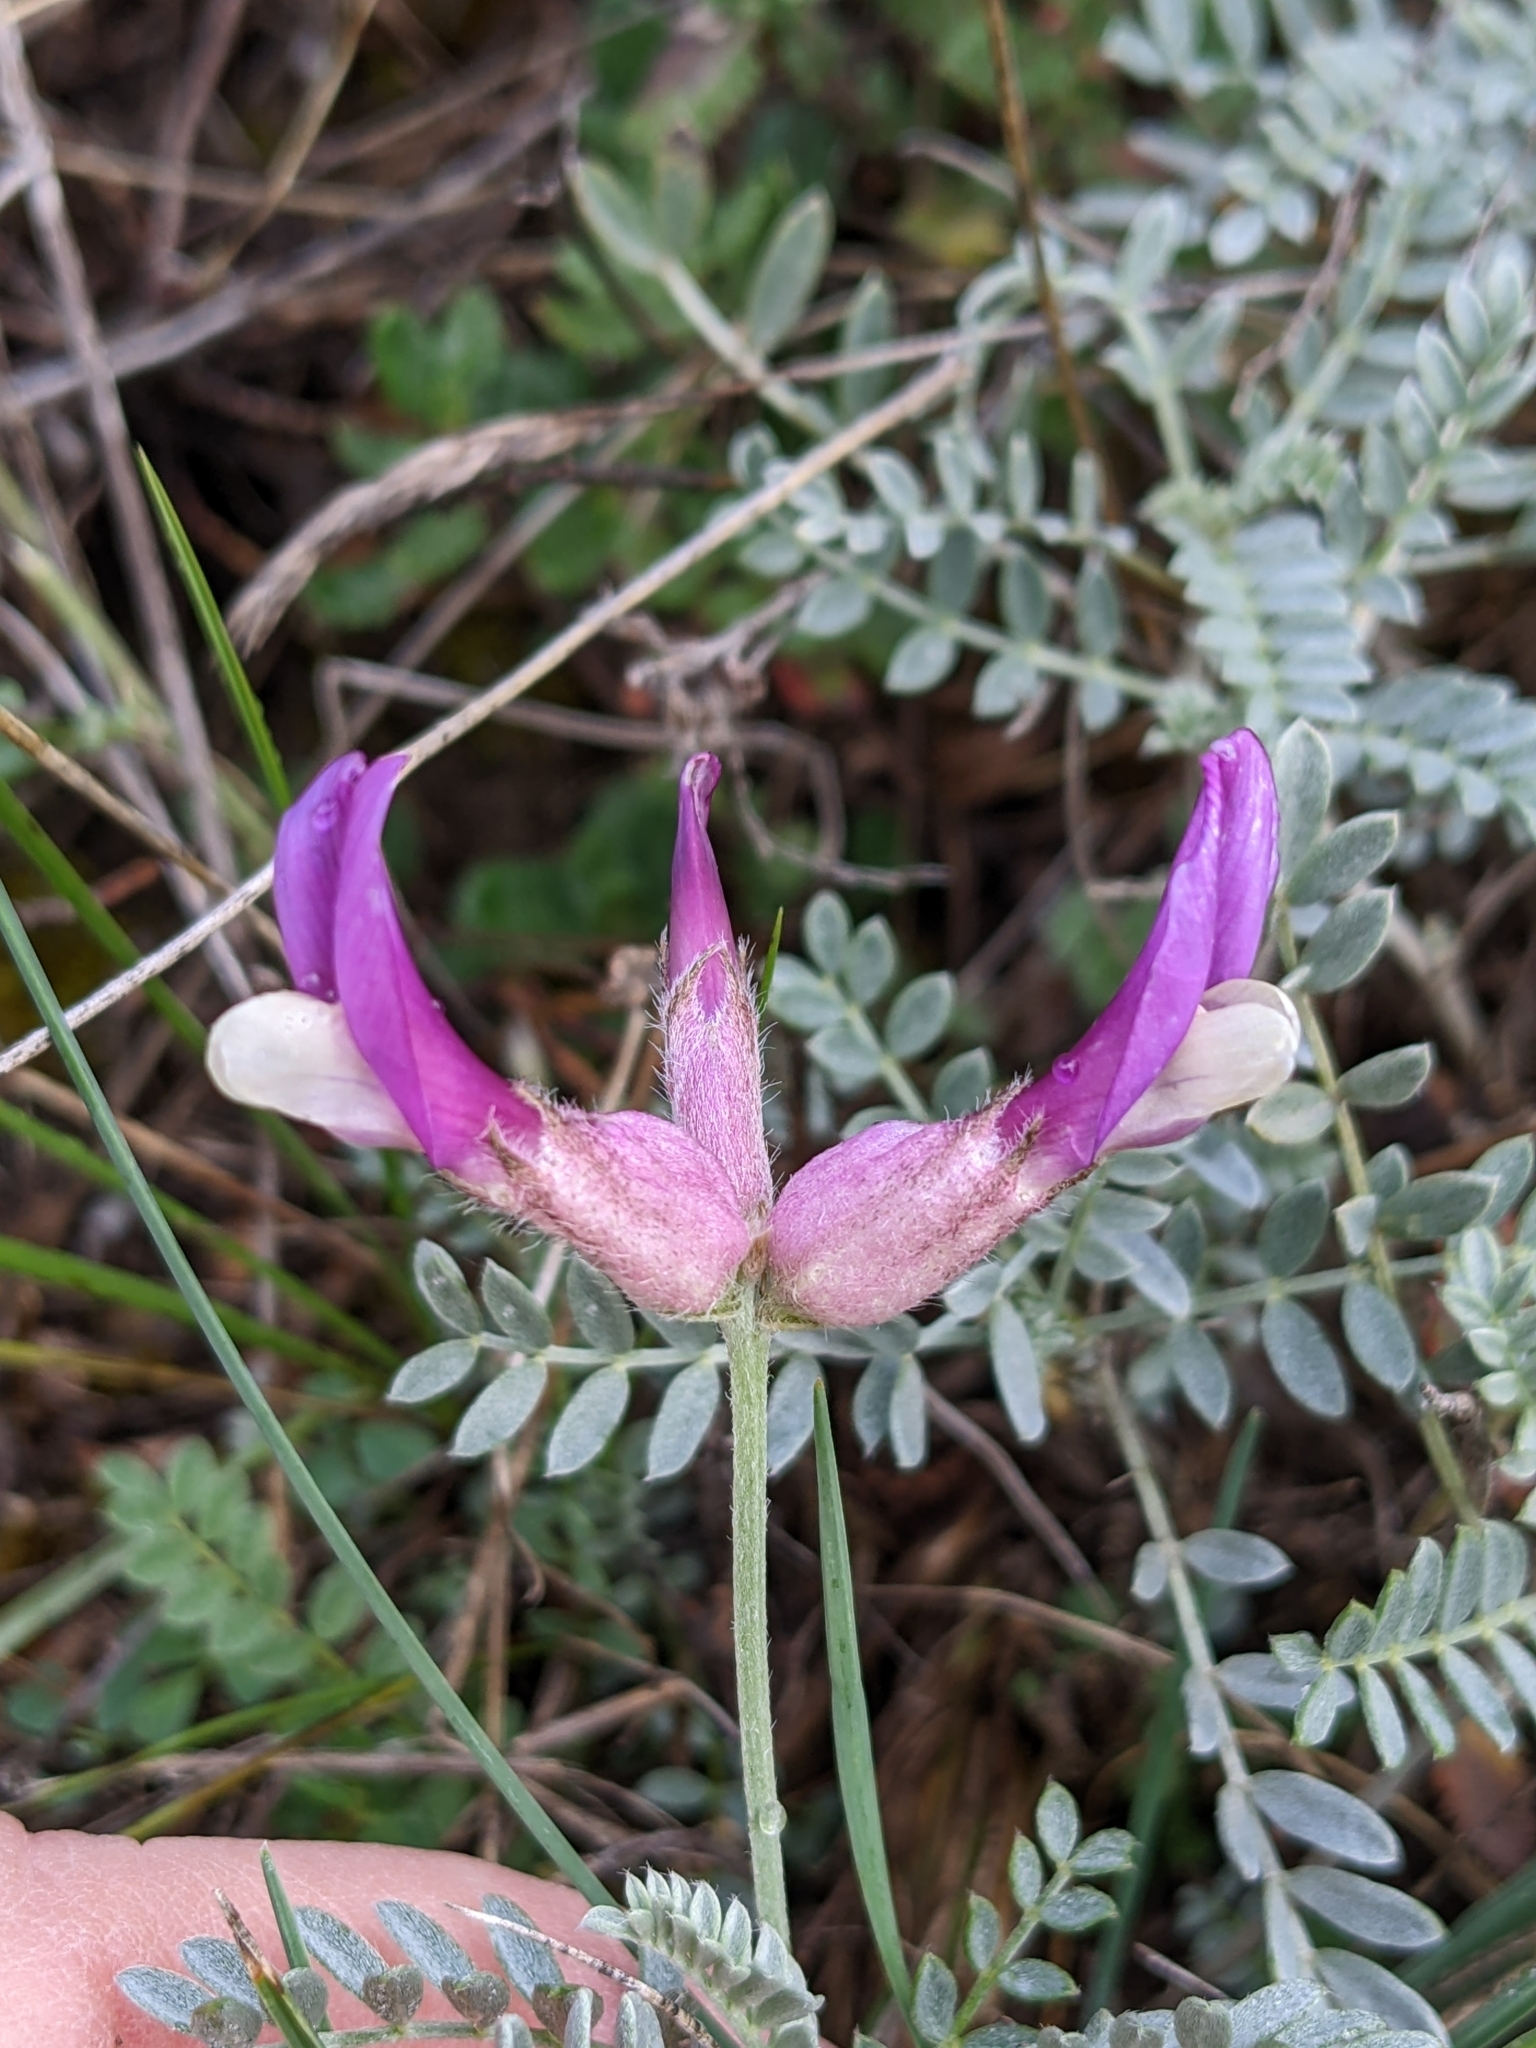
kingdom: Plantae
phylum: Tracheophyta
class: Magnoliopsida
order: Fabales
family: Fabaceae
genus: Astragalus
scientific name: Astragalus vesicarius
